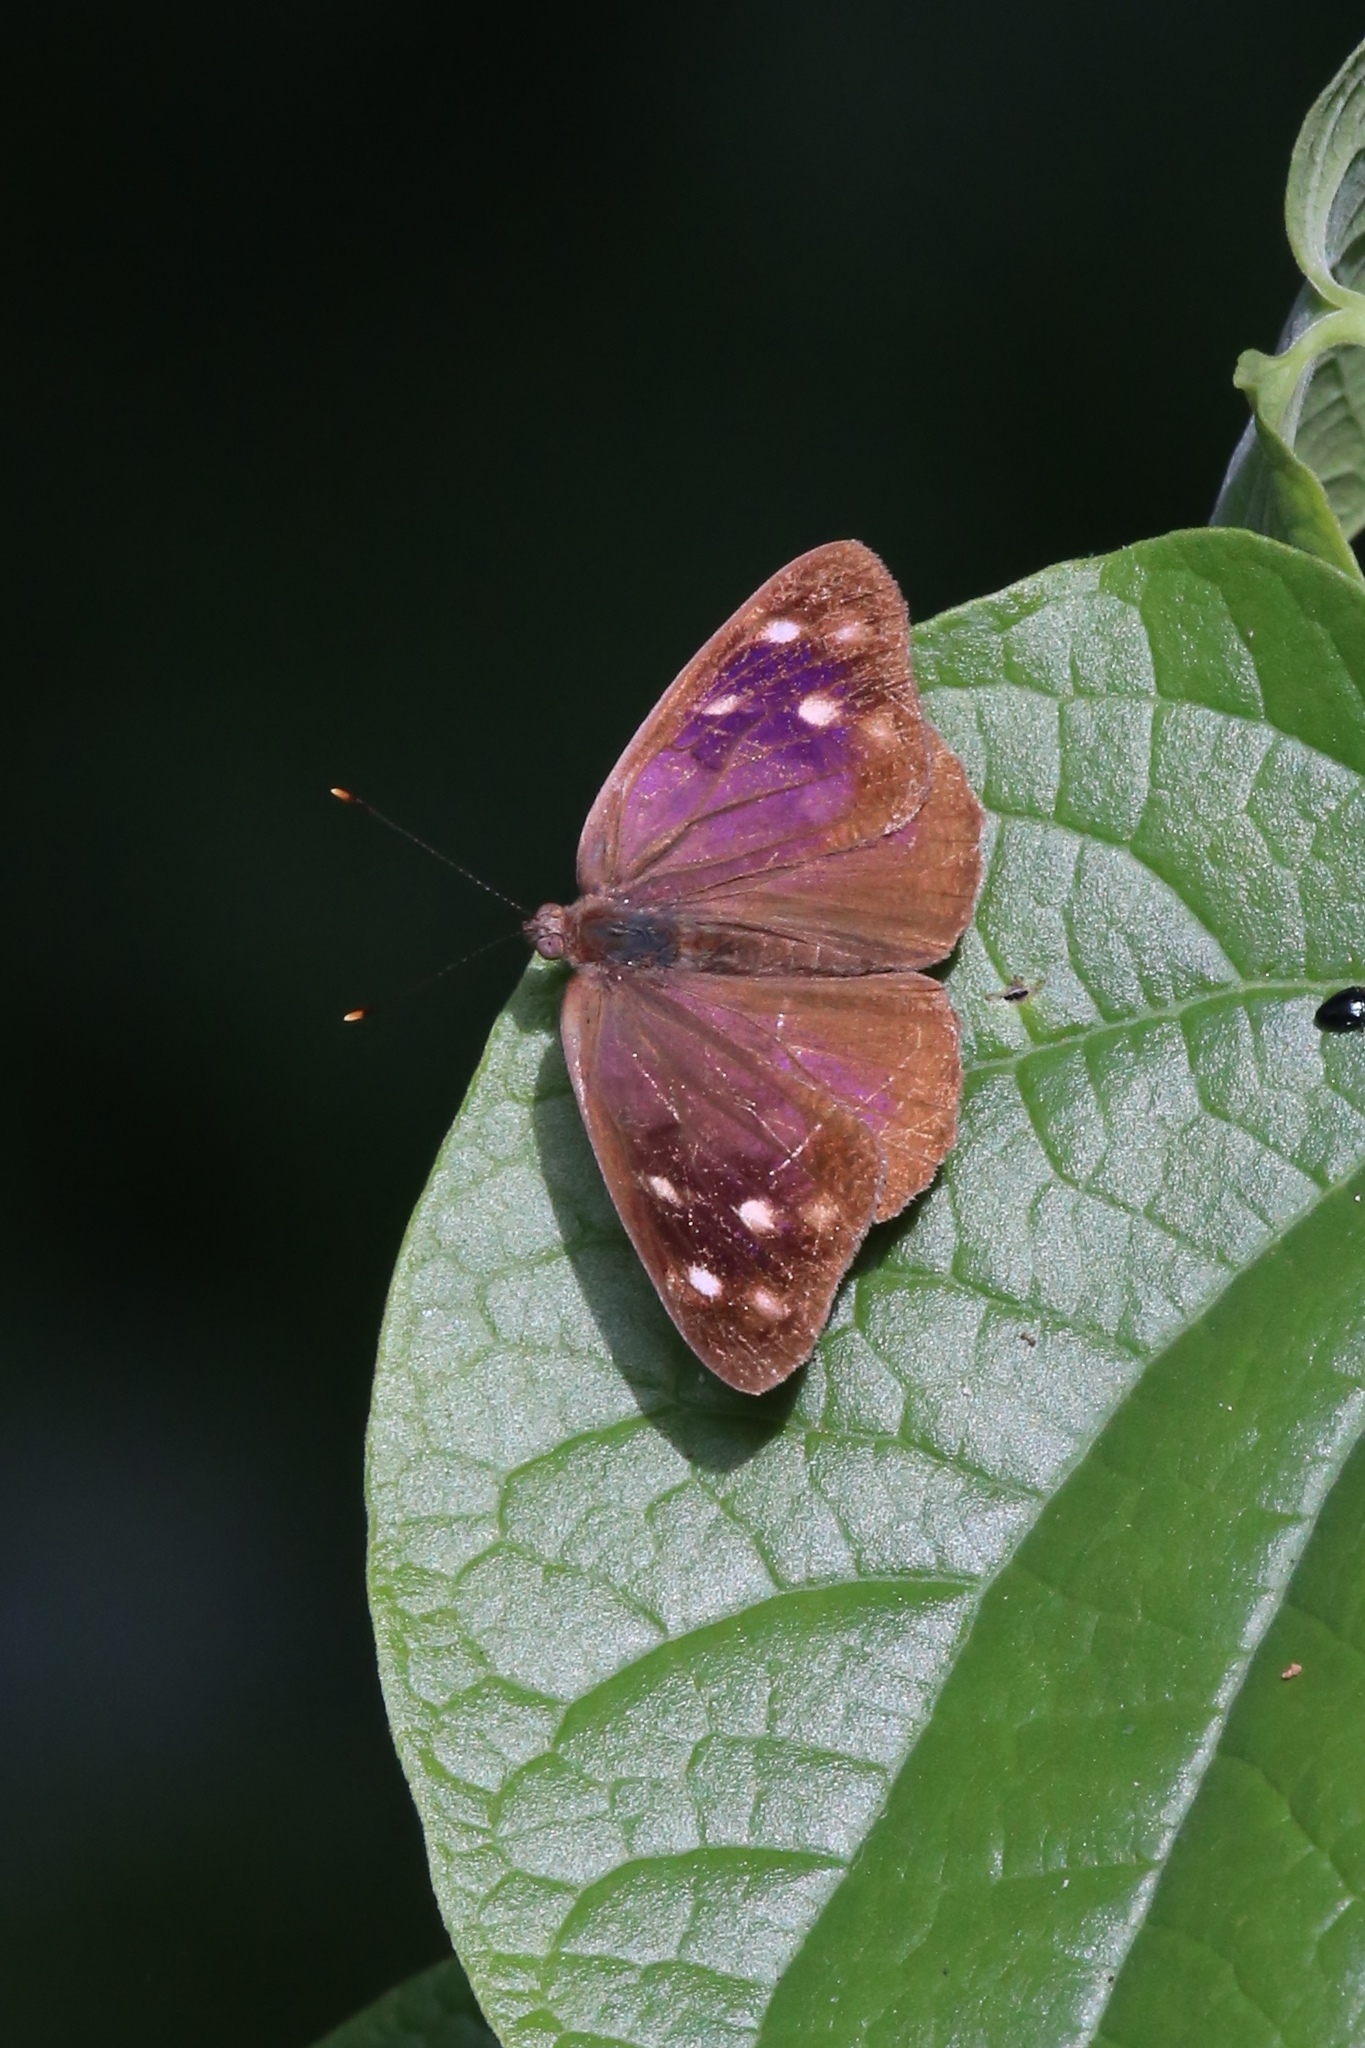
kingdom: Animalia
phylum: Arthropoda
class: Insecta
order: Lepidoptera
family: Nymphalidae
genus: Eunica
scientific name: Eunica monima
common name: Dingy purplewing
